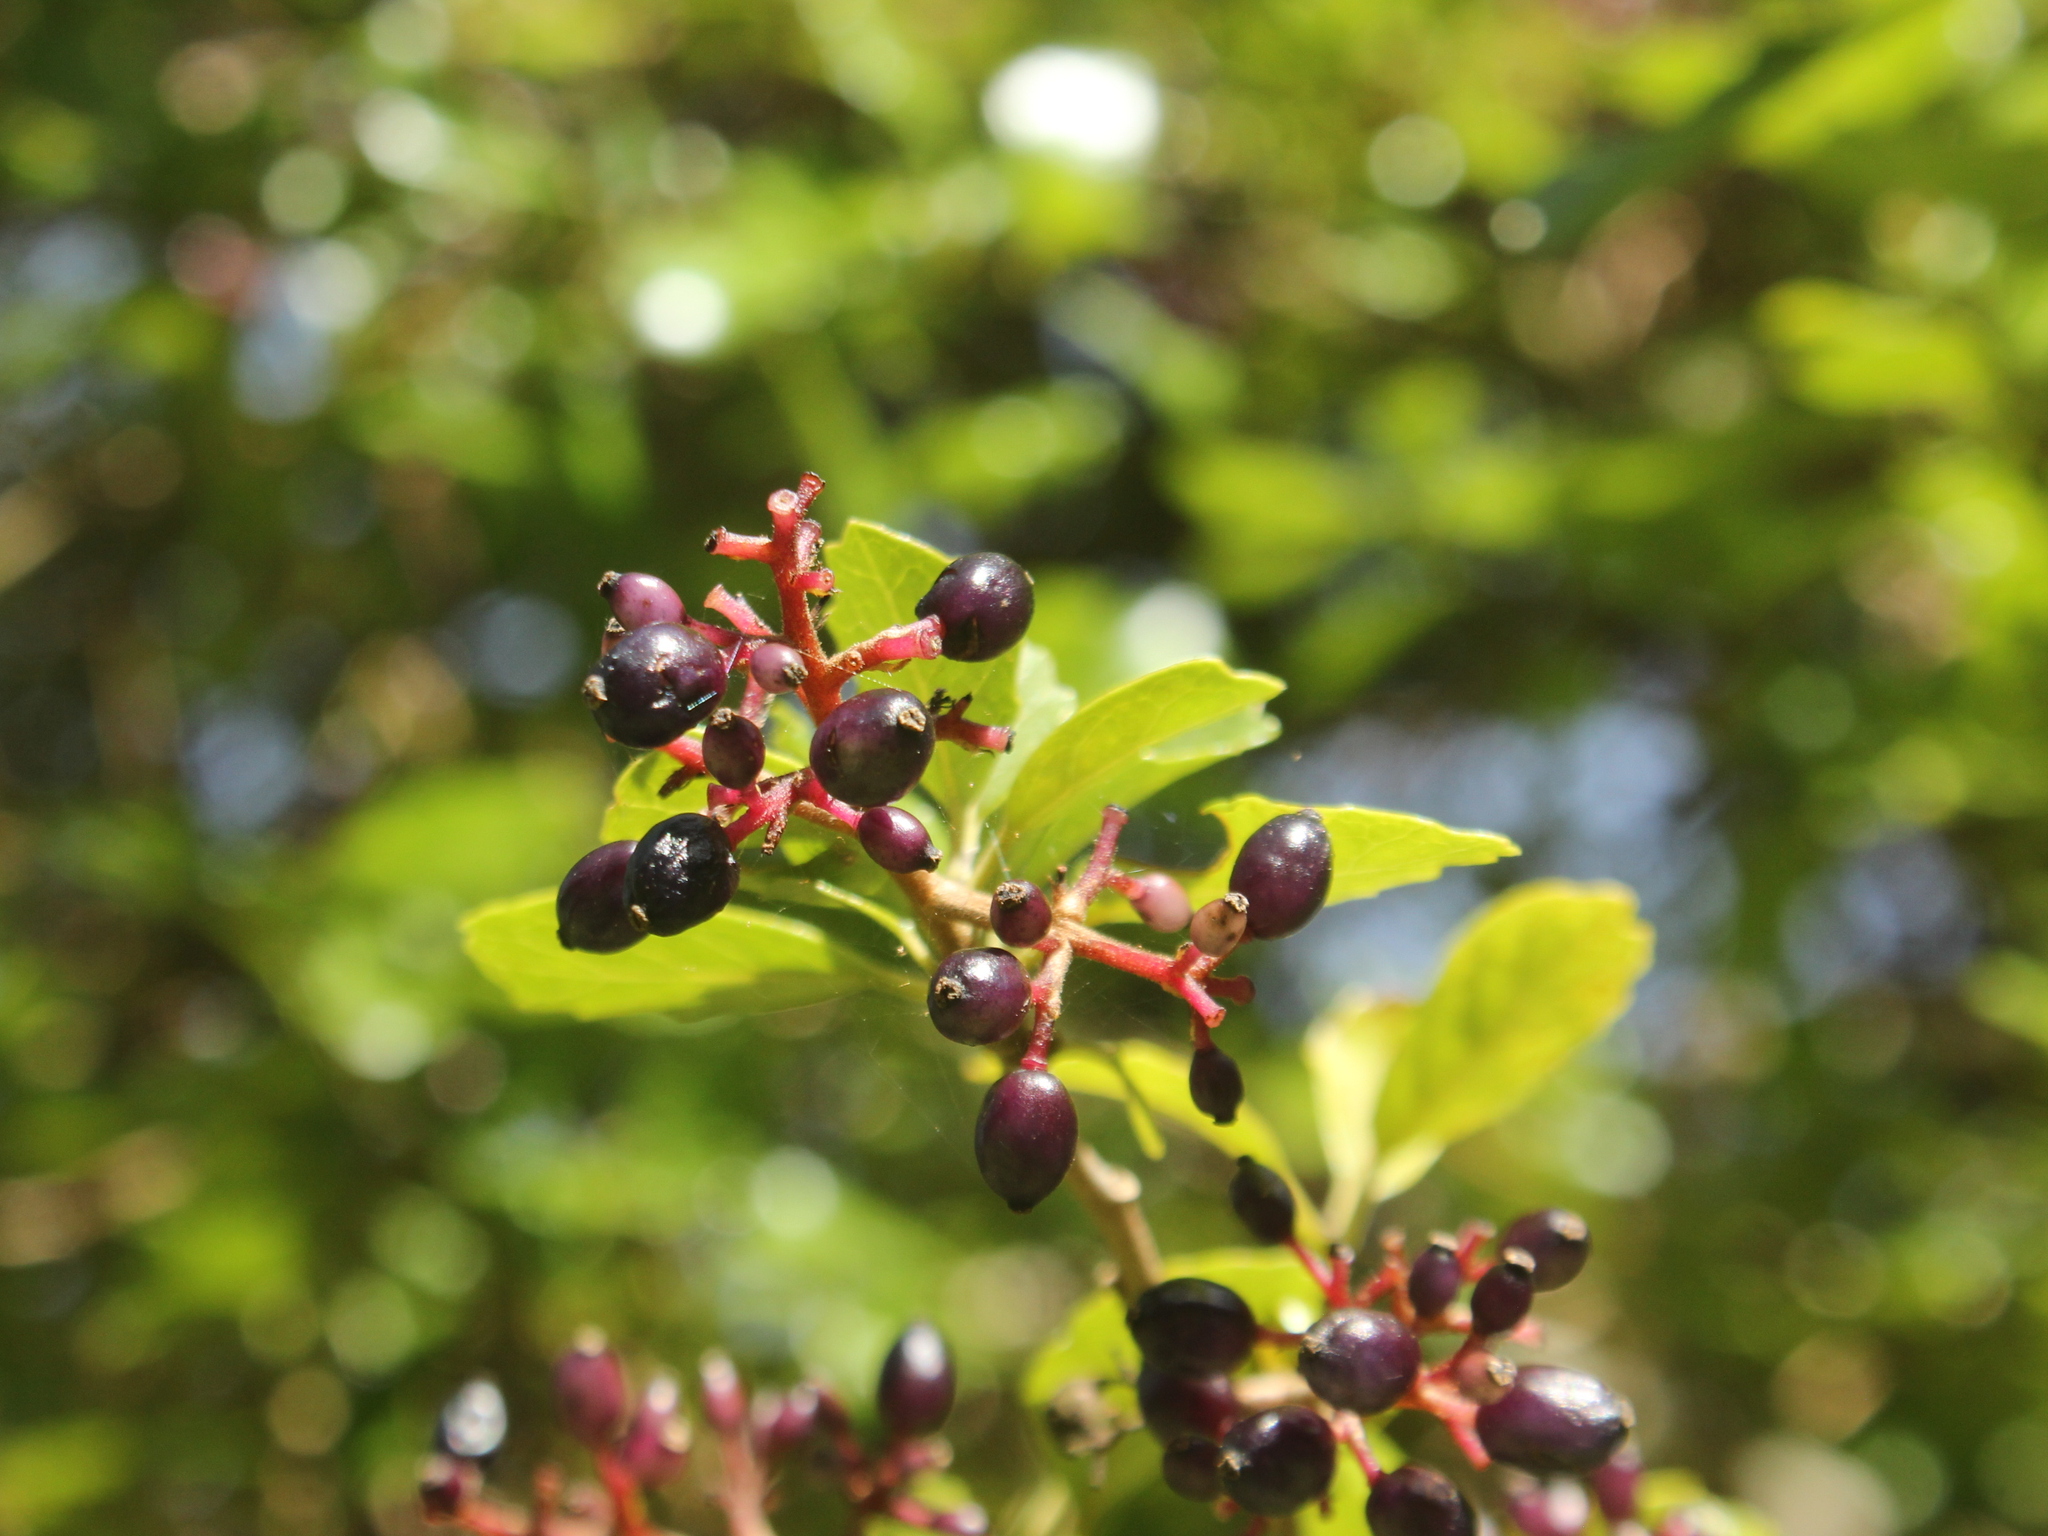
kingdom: Plantae
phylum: Tracheophyta
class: Magnoliopsida
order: Apiales
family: Pennantiaceae
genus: Pennantia
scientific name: Pennantia corymbosa
